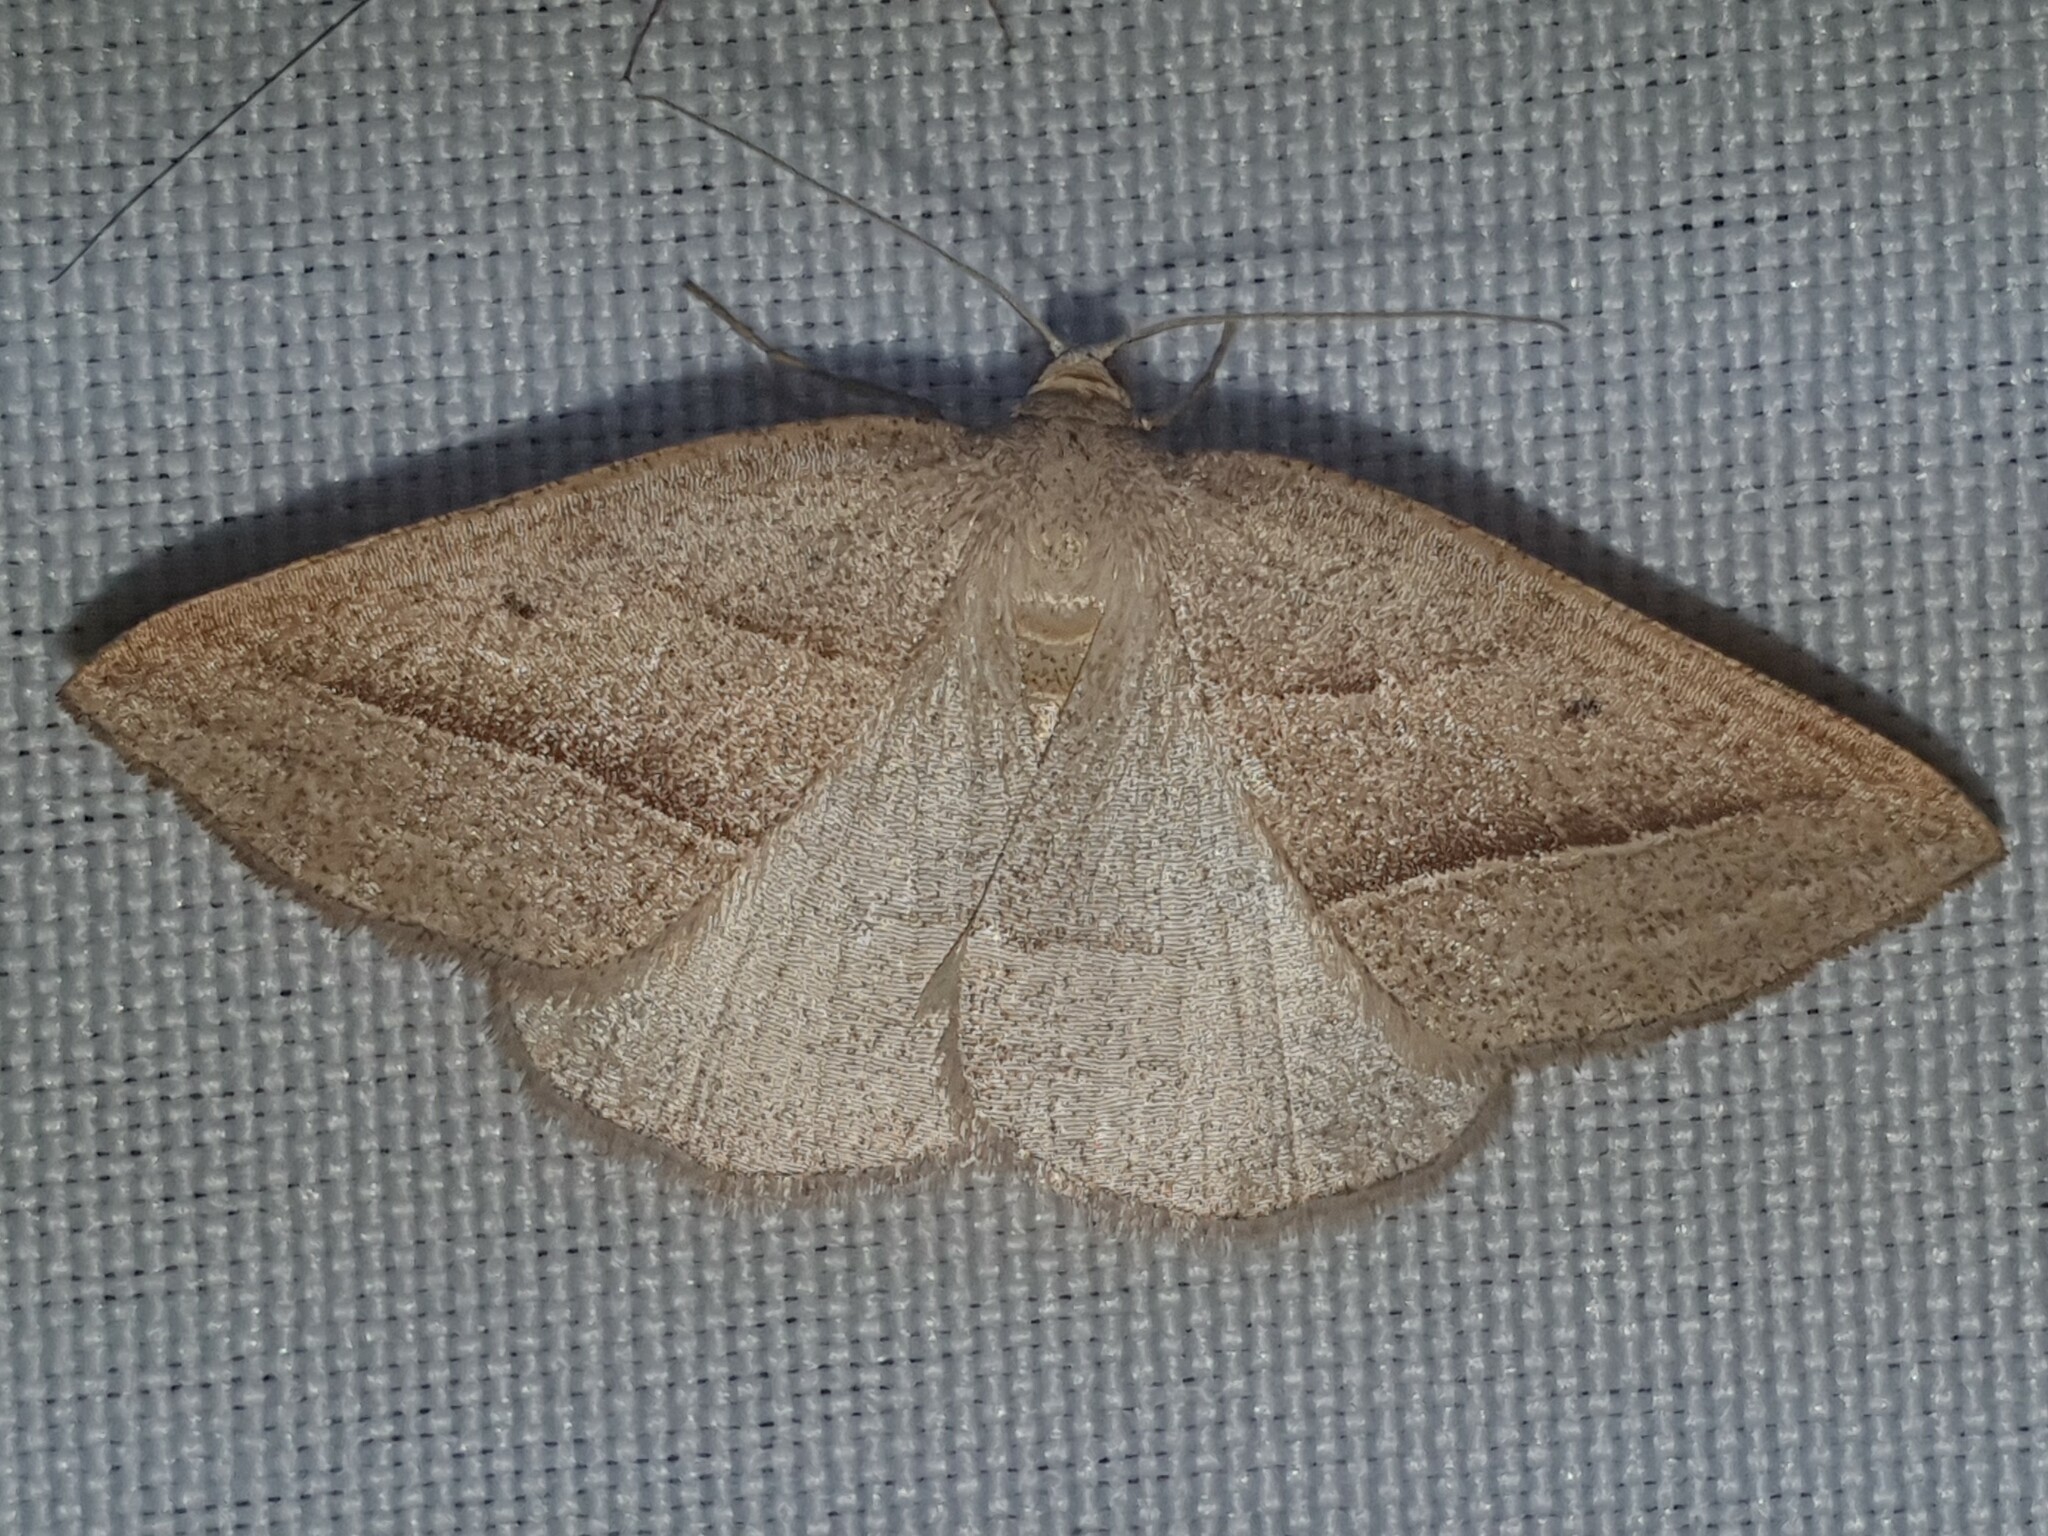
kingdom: Animalia
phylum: Arthropoda
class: Insecta
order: Lepidoptera
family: Pterophoridae
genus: Pterophorus
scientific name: Pterophorus Petrophora chlorosata
